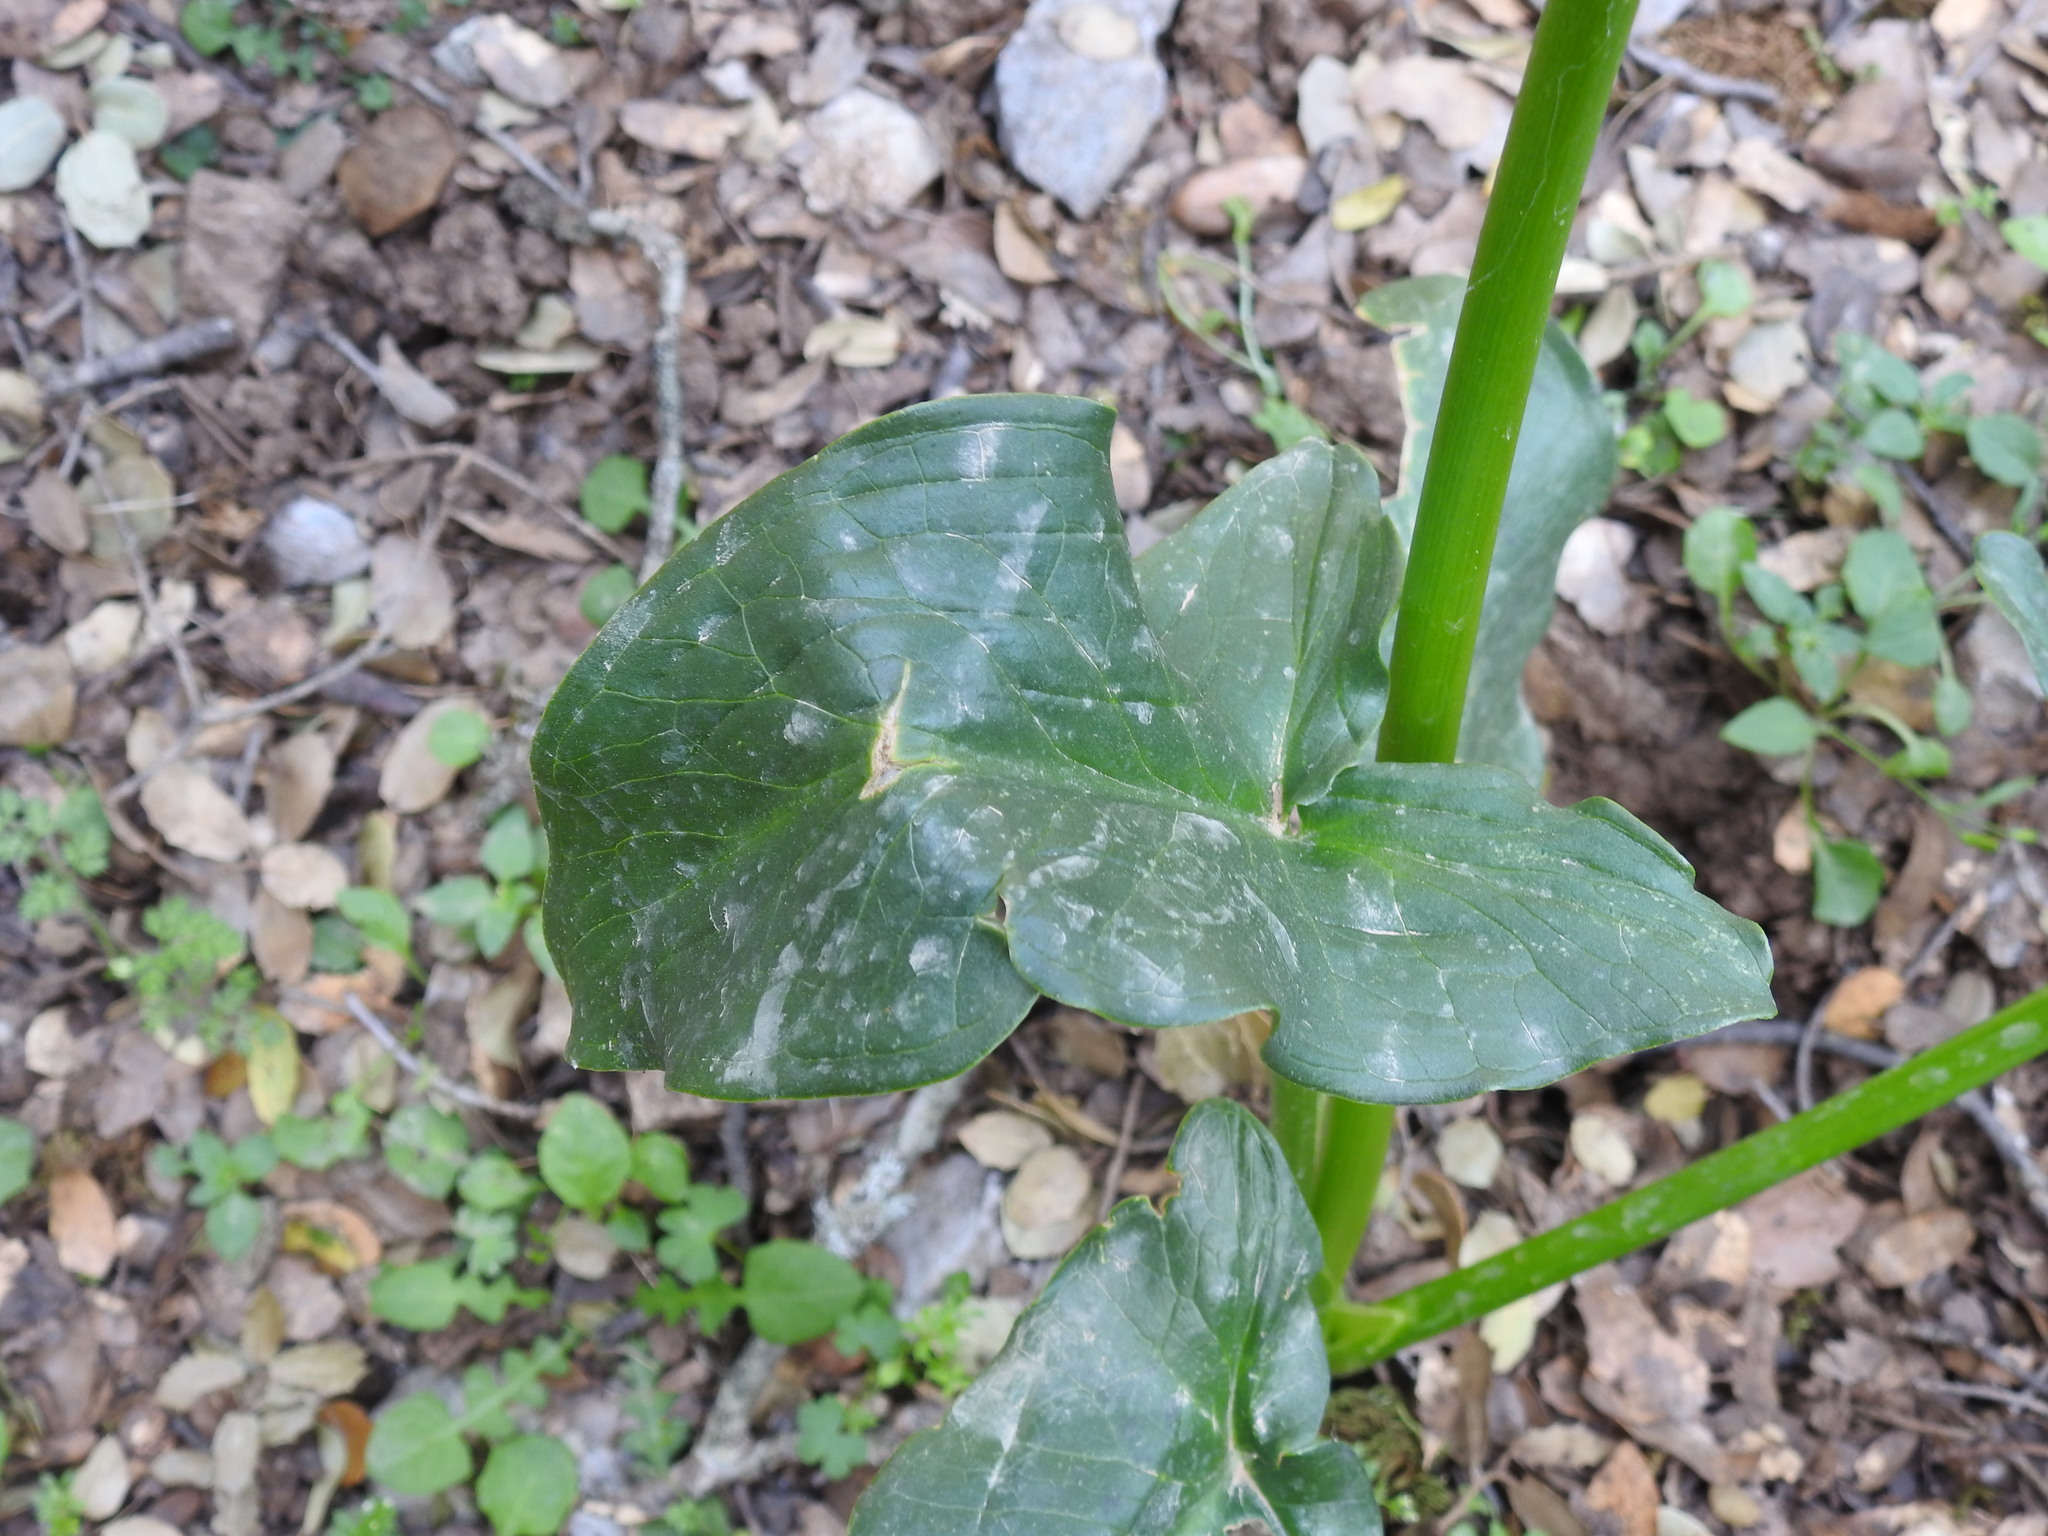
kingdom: Plantae
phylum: Tracheophyta
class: Liliopsida
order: Alismatales
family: Araceae
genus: Arum
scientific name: Arum creticum
